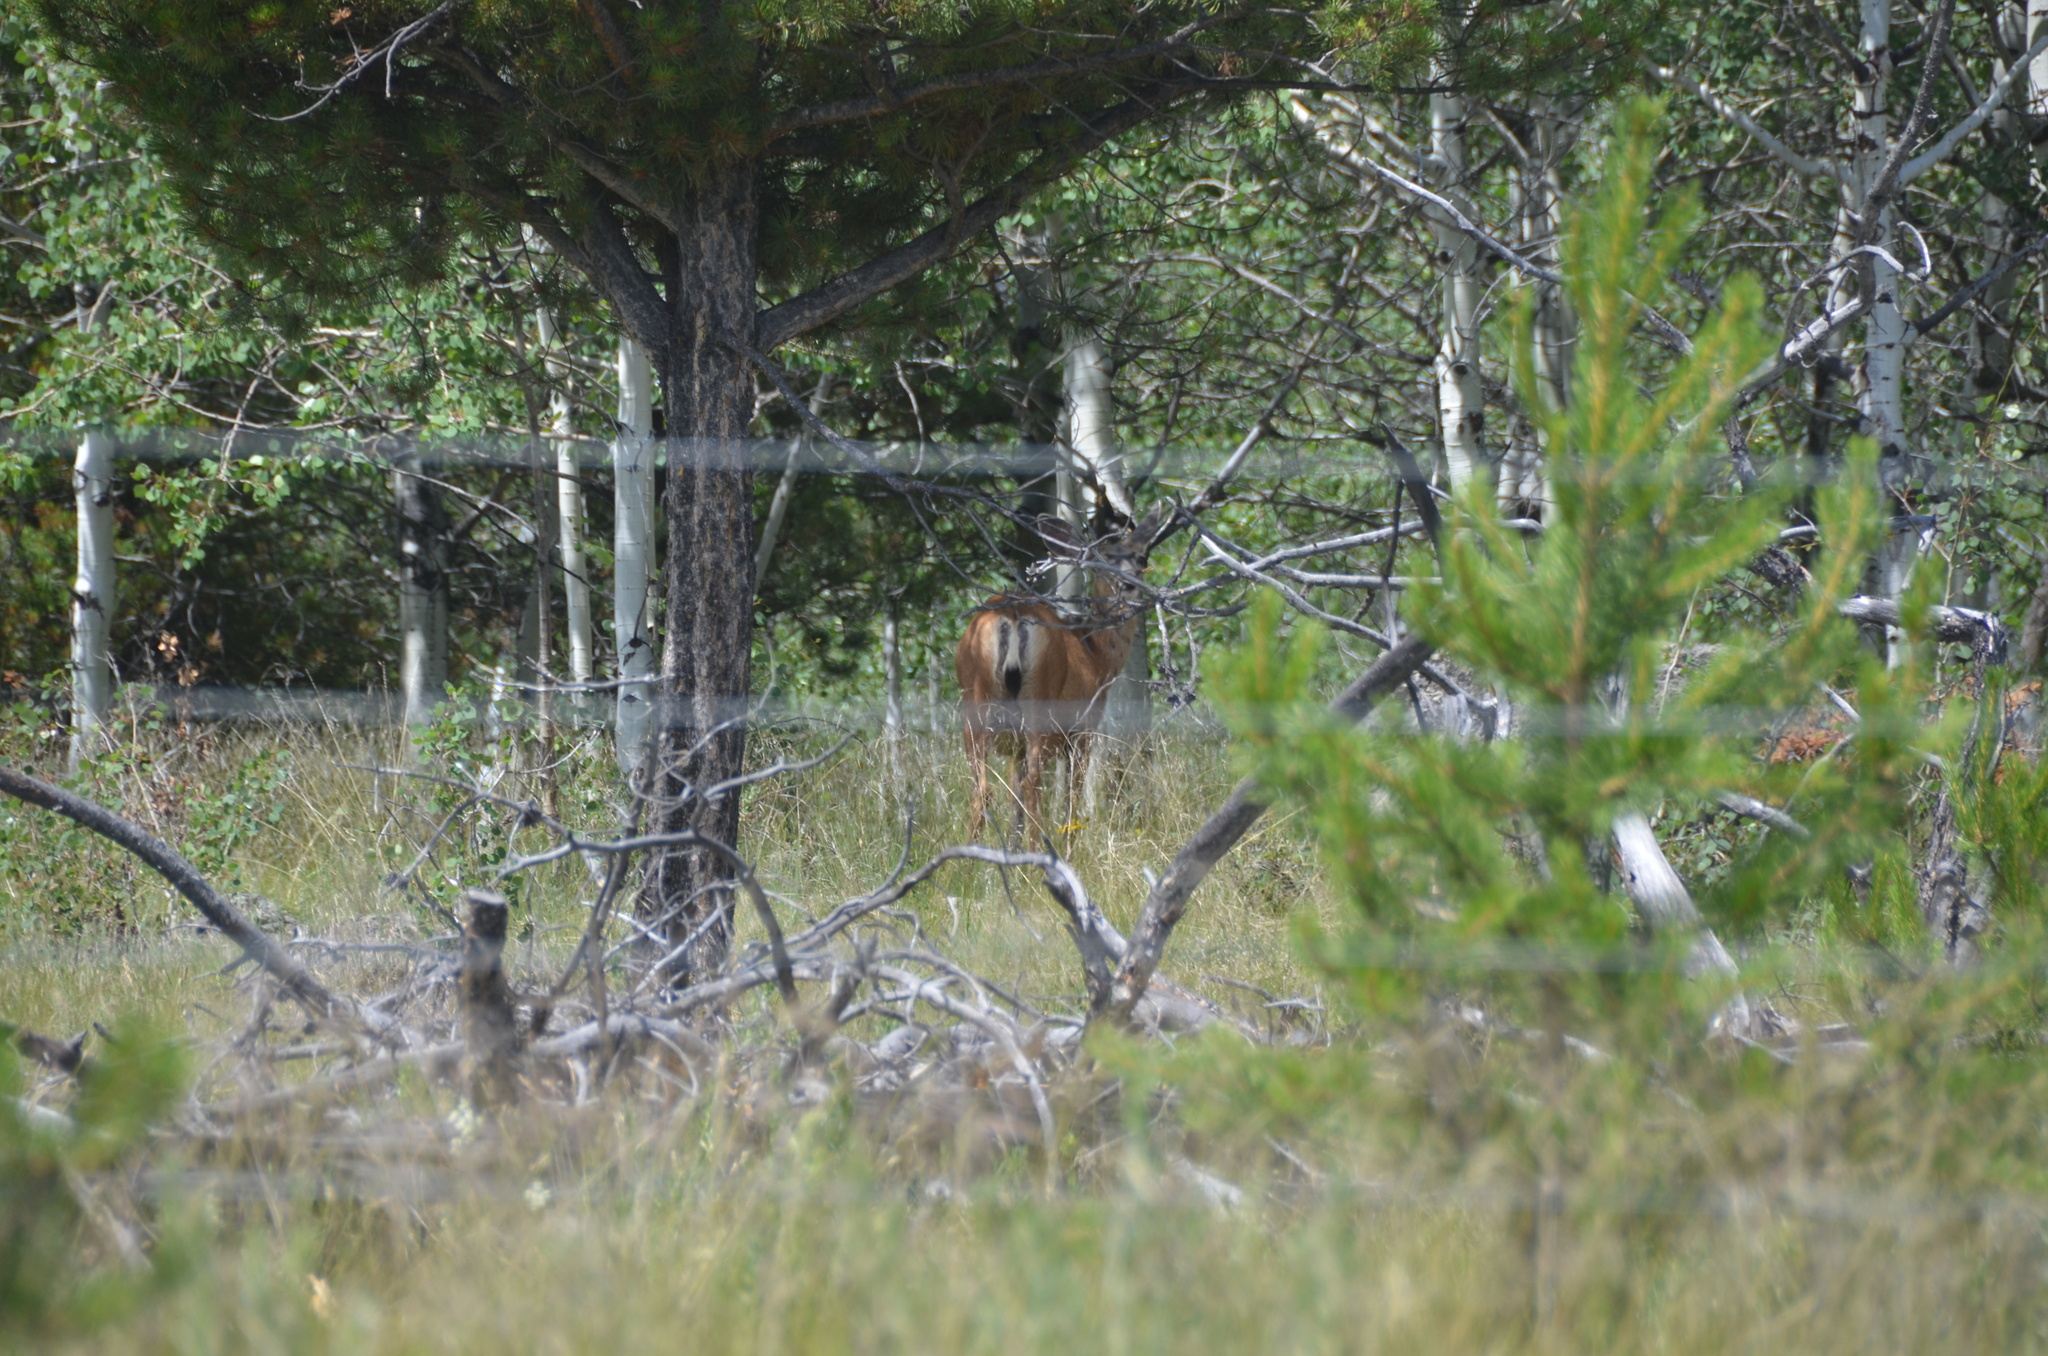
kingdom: Animalia
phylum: Chordata
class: Mammalia
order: Artiodactyla
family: Cervidae
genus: Odocoileus
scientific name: Odocoileus hemionus
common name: Mule deer
